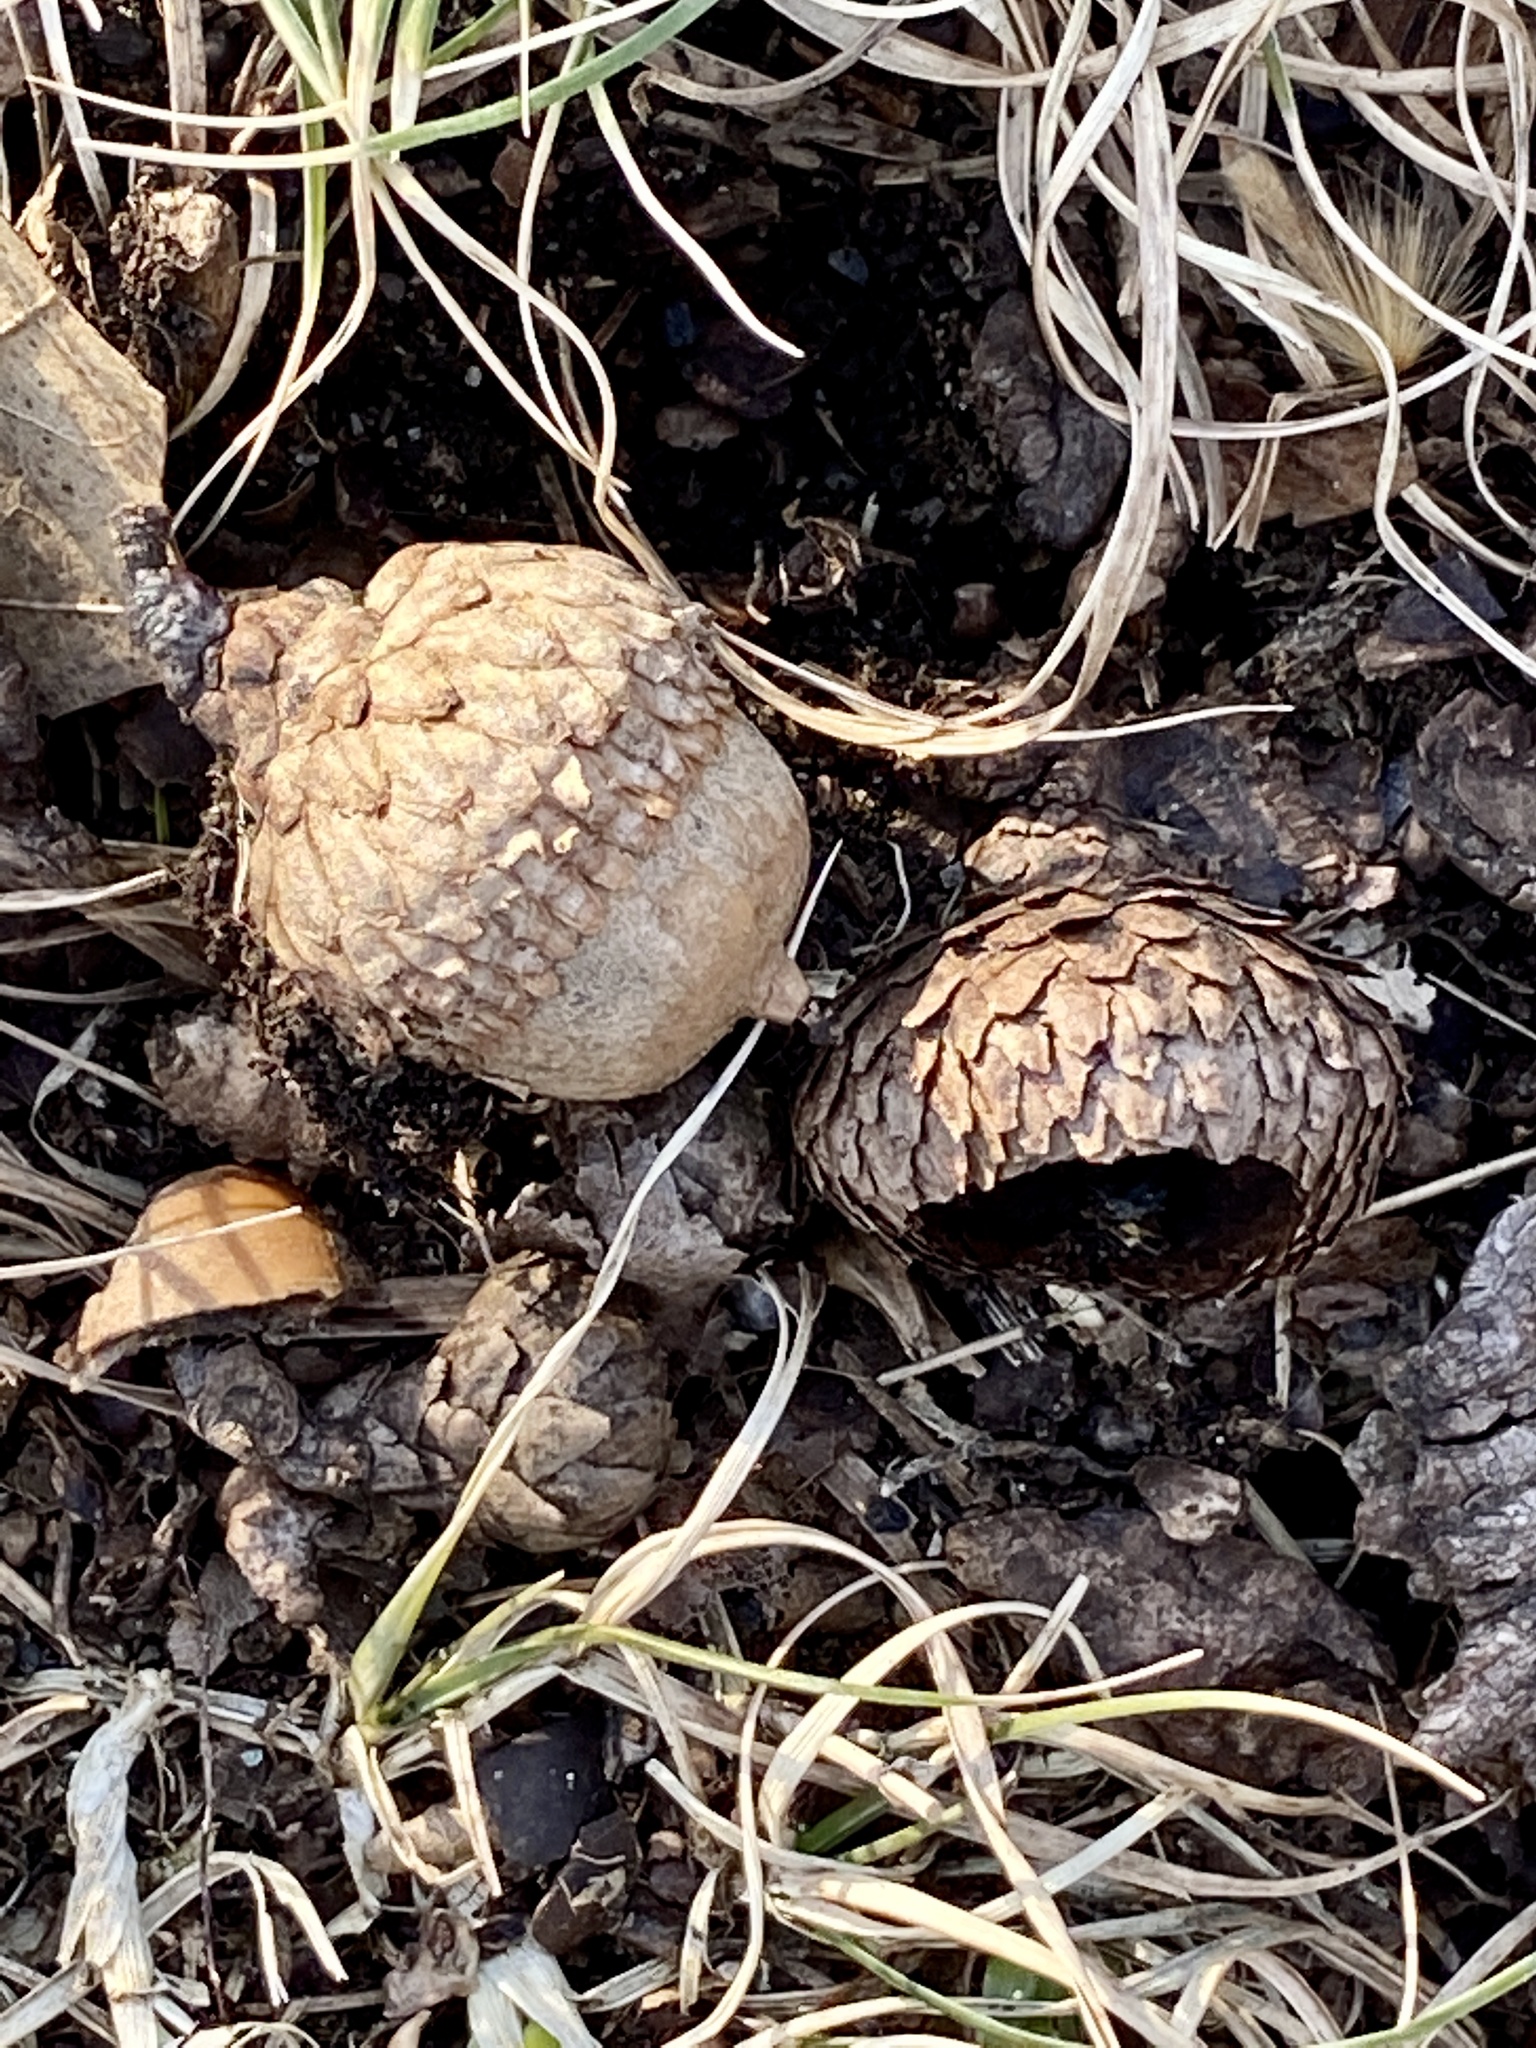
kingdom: Plantae
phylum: Tracheophyta
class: Magnoliopsida
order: Fagales
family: Fagaceae
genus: Quercus
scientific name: Quercus velutina
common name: Black oak
